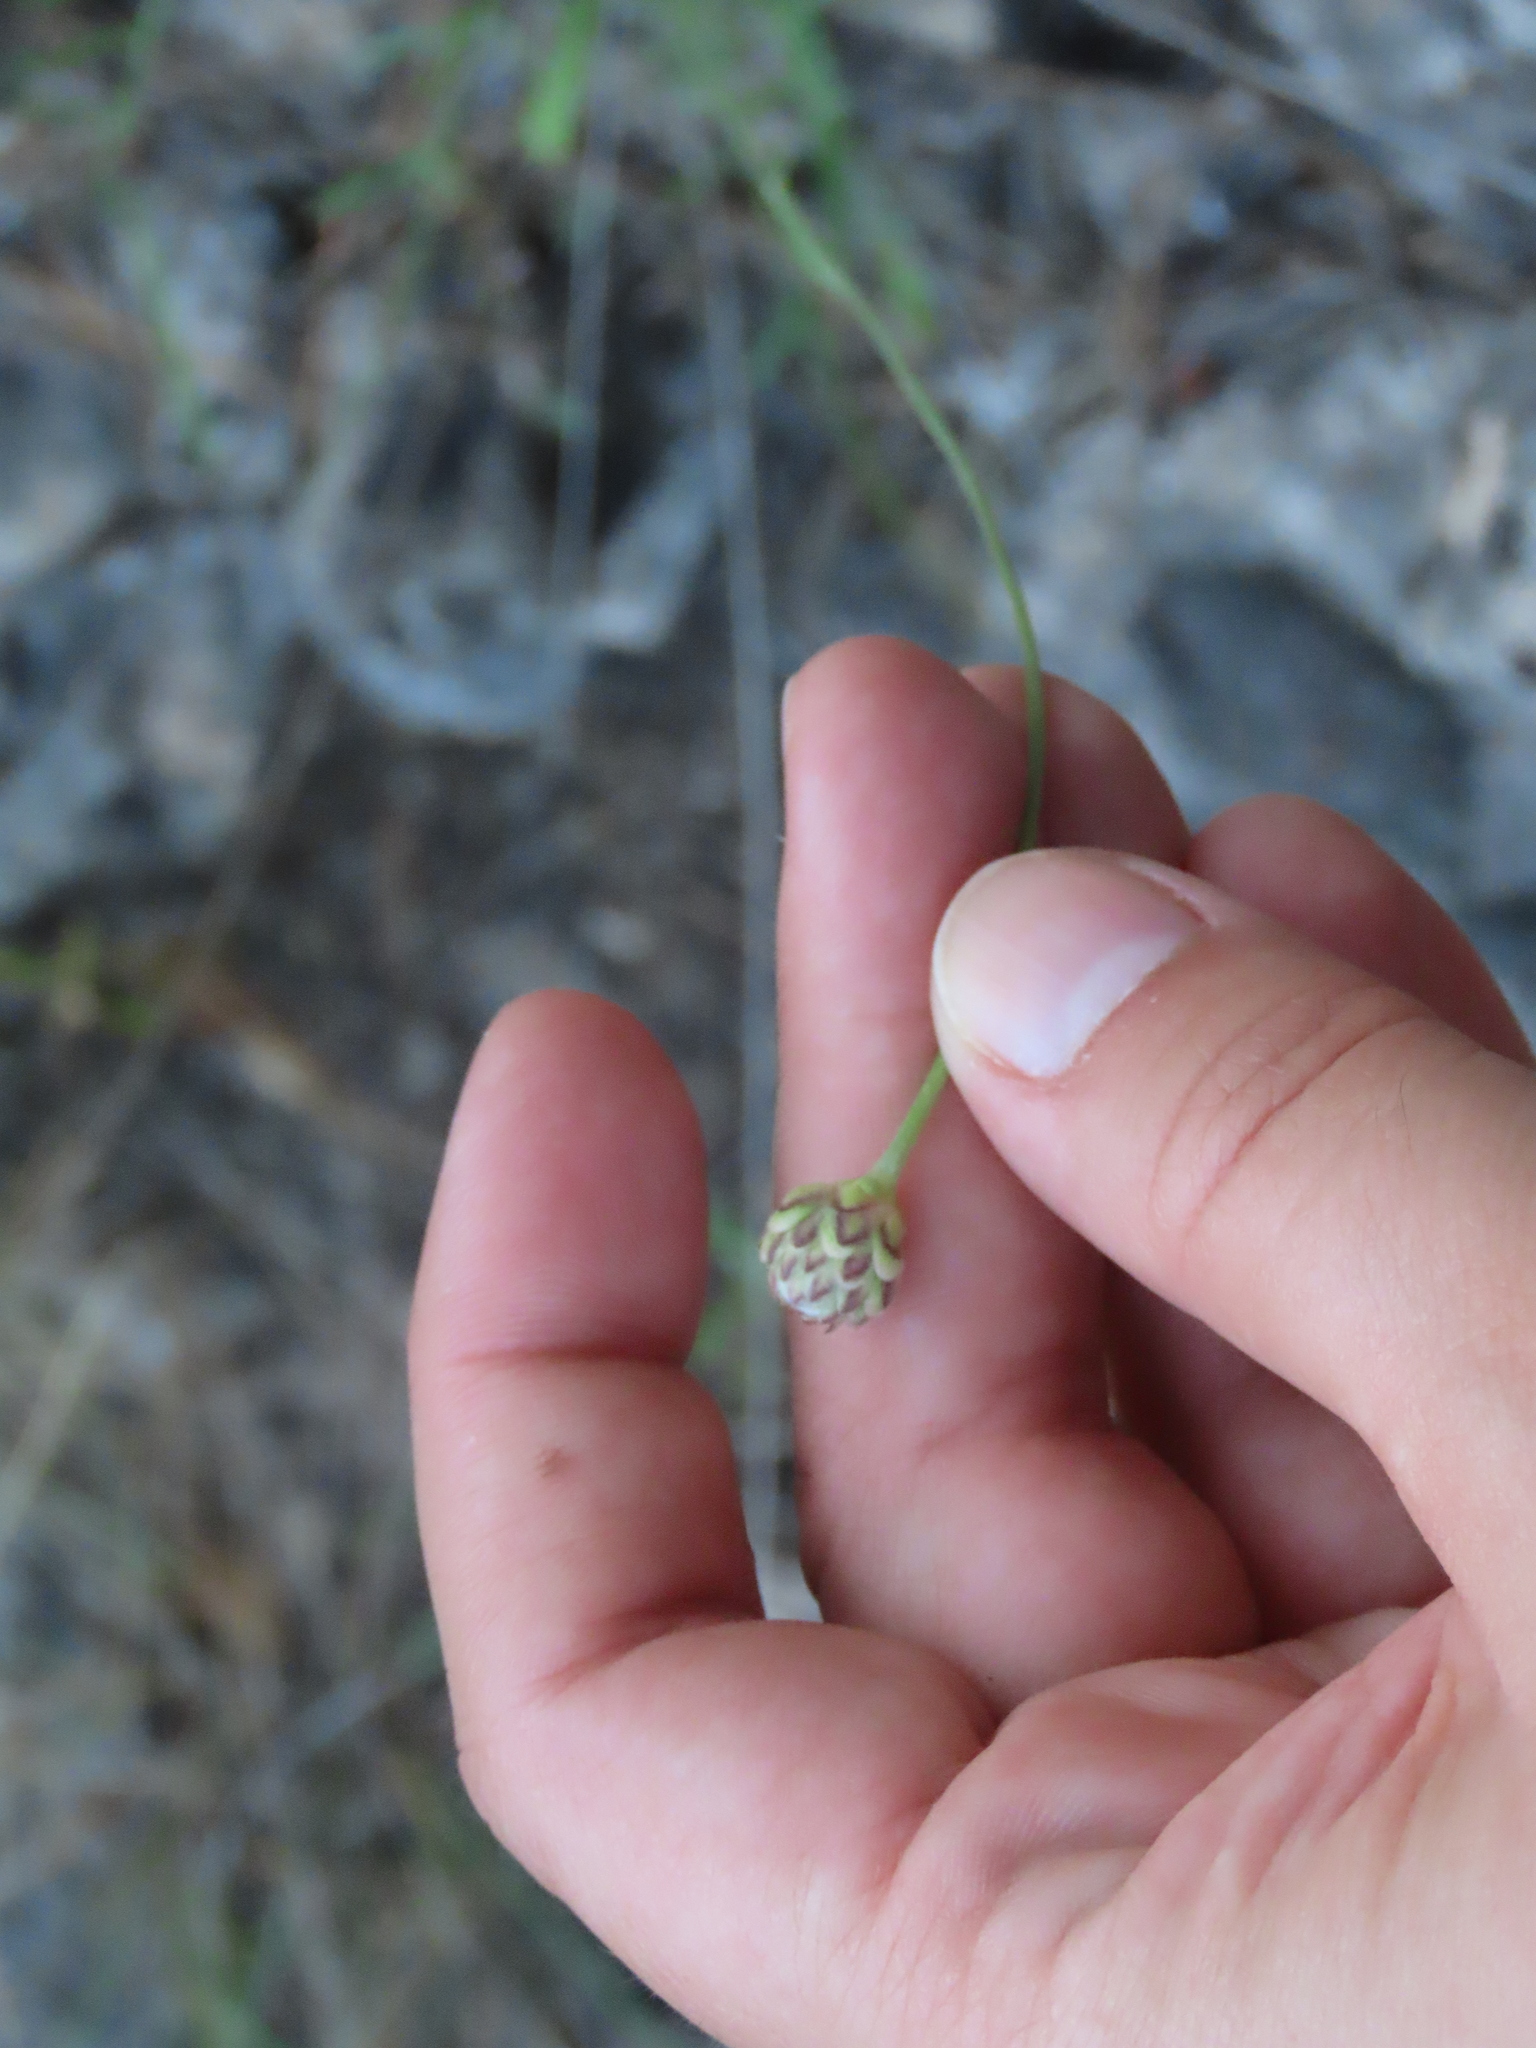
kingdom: Plantae
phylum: Tracheophyta
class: Magnoliopsida
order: Dipsacales
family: Caprifoliaceae
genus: Cephalaria
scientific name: Cephalaria leucantha
